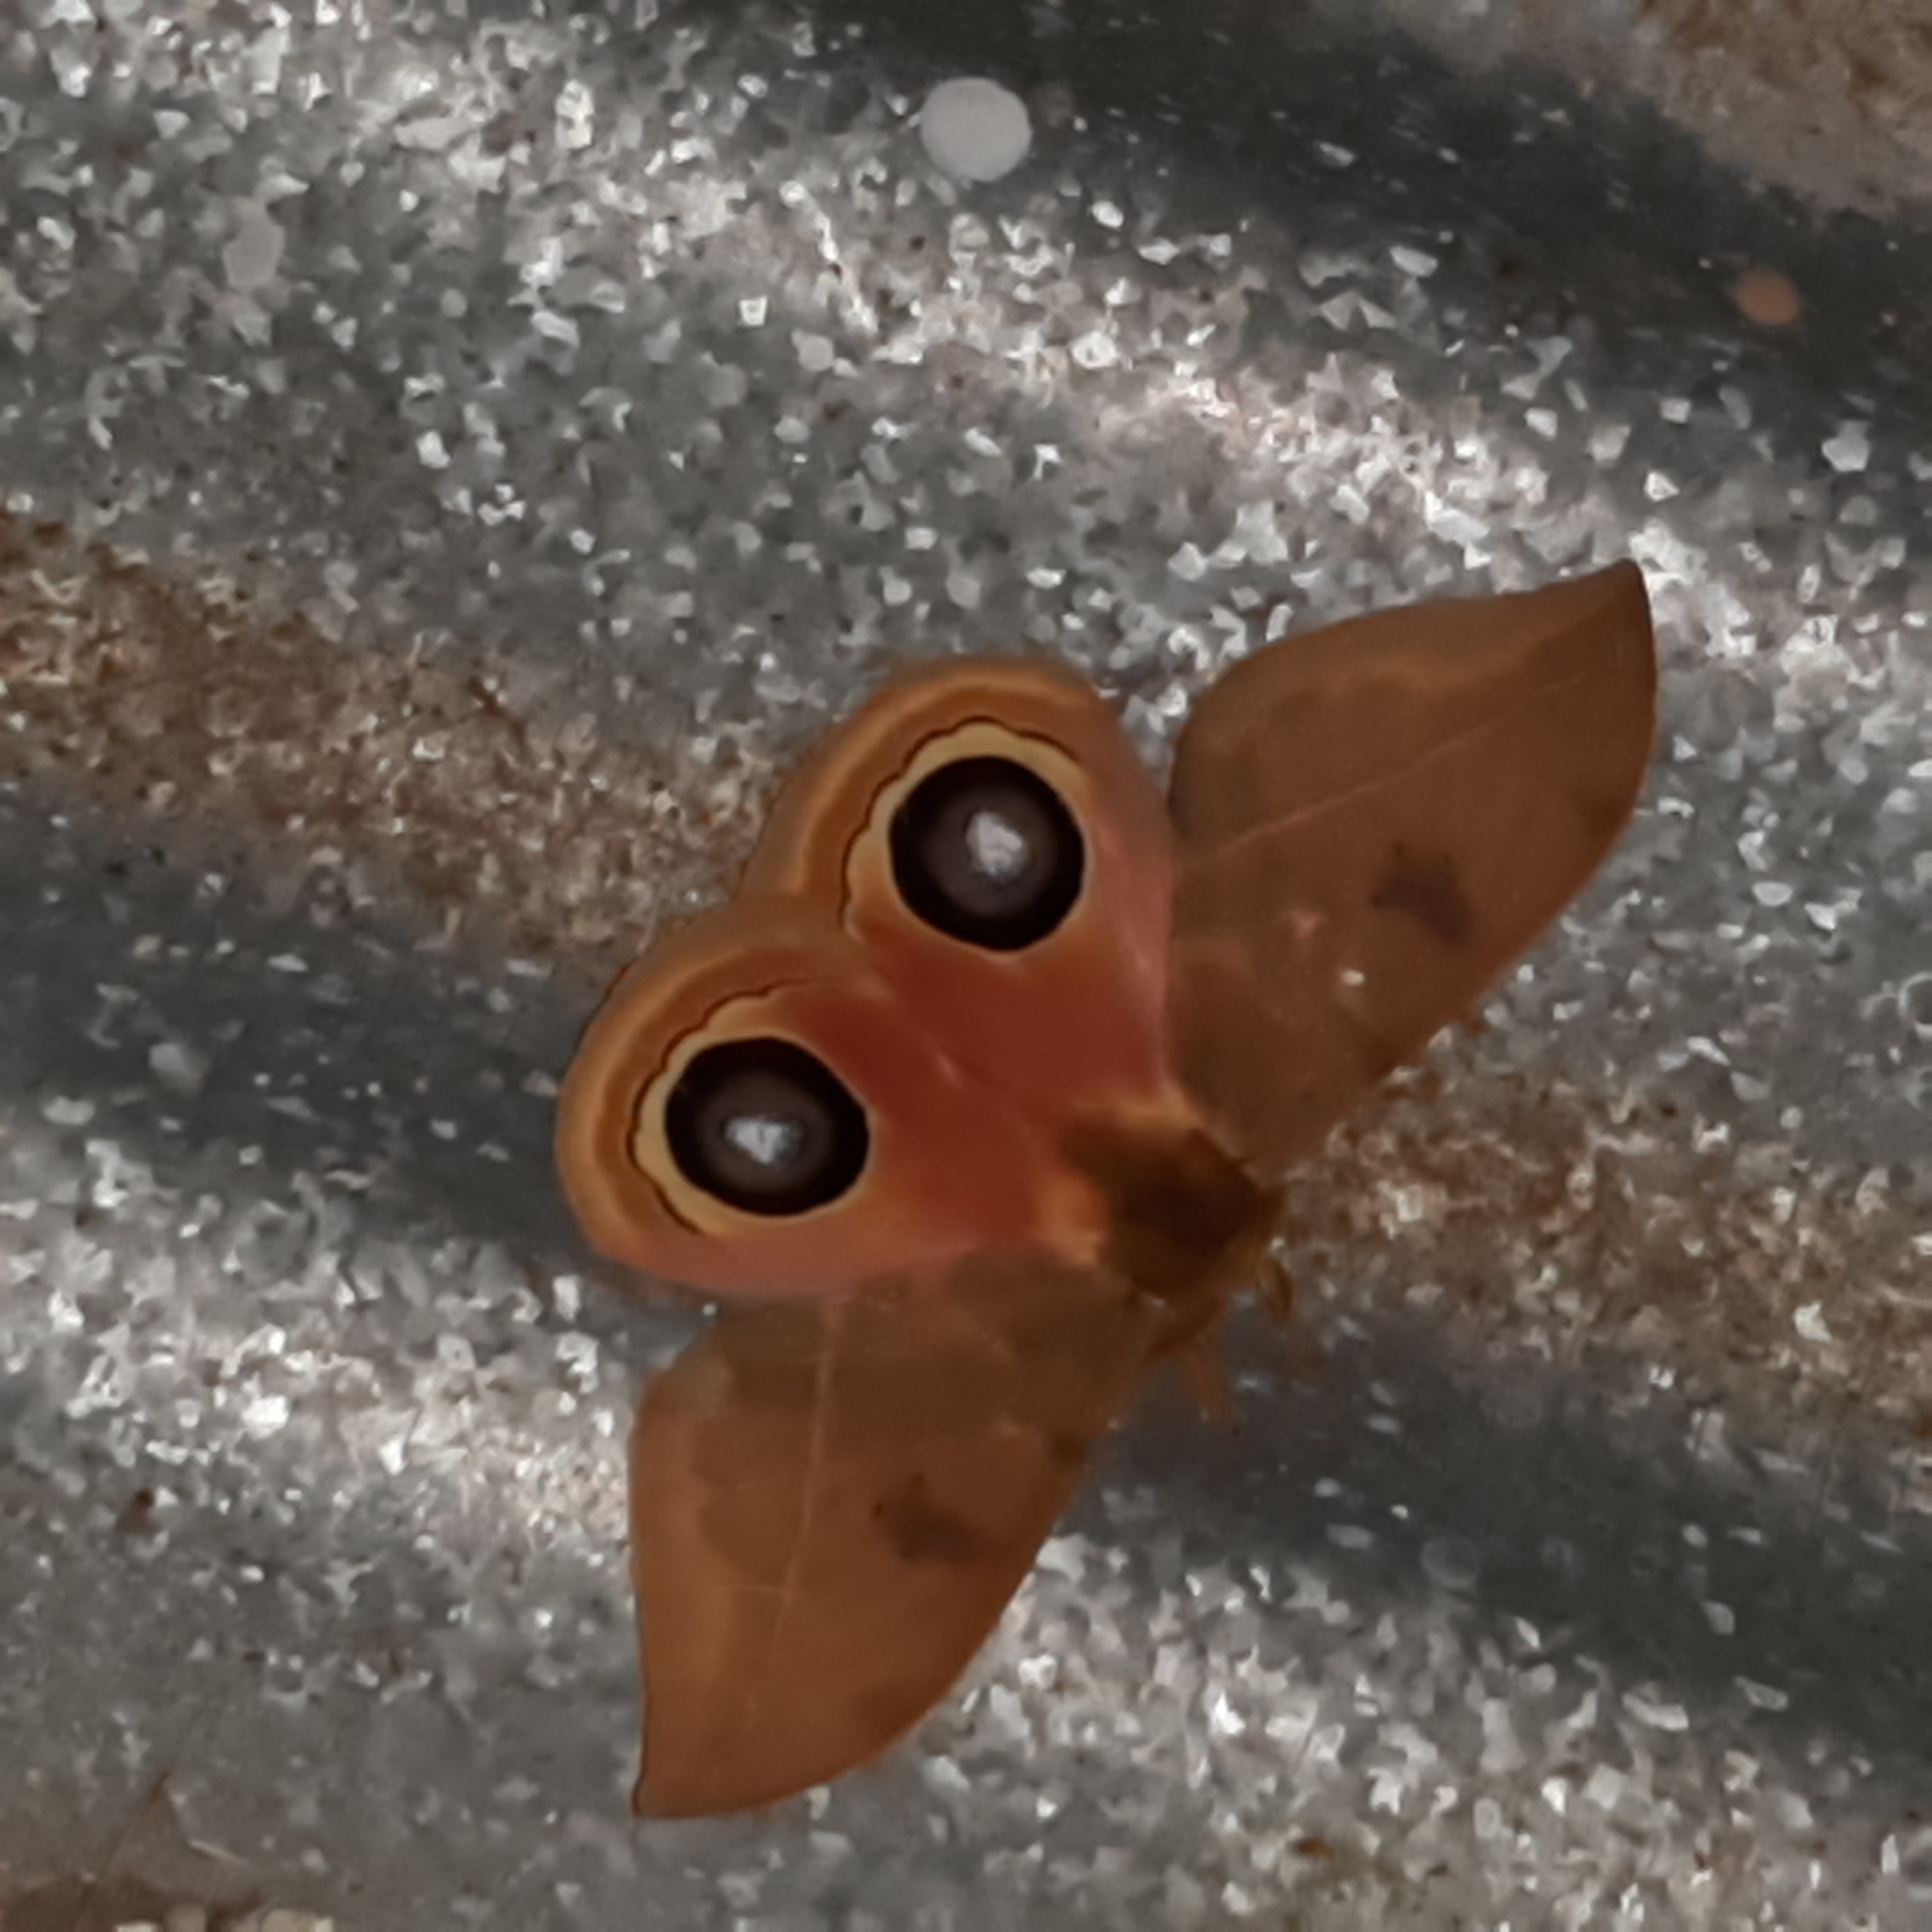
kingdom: Animalia
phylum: Arthropoda
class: Insecta
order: Lepidoptera
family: Saturniidae
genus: Automeris
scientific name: Automeris tridens
